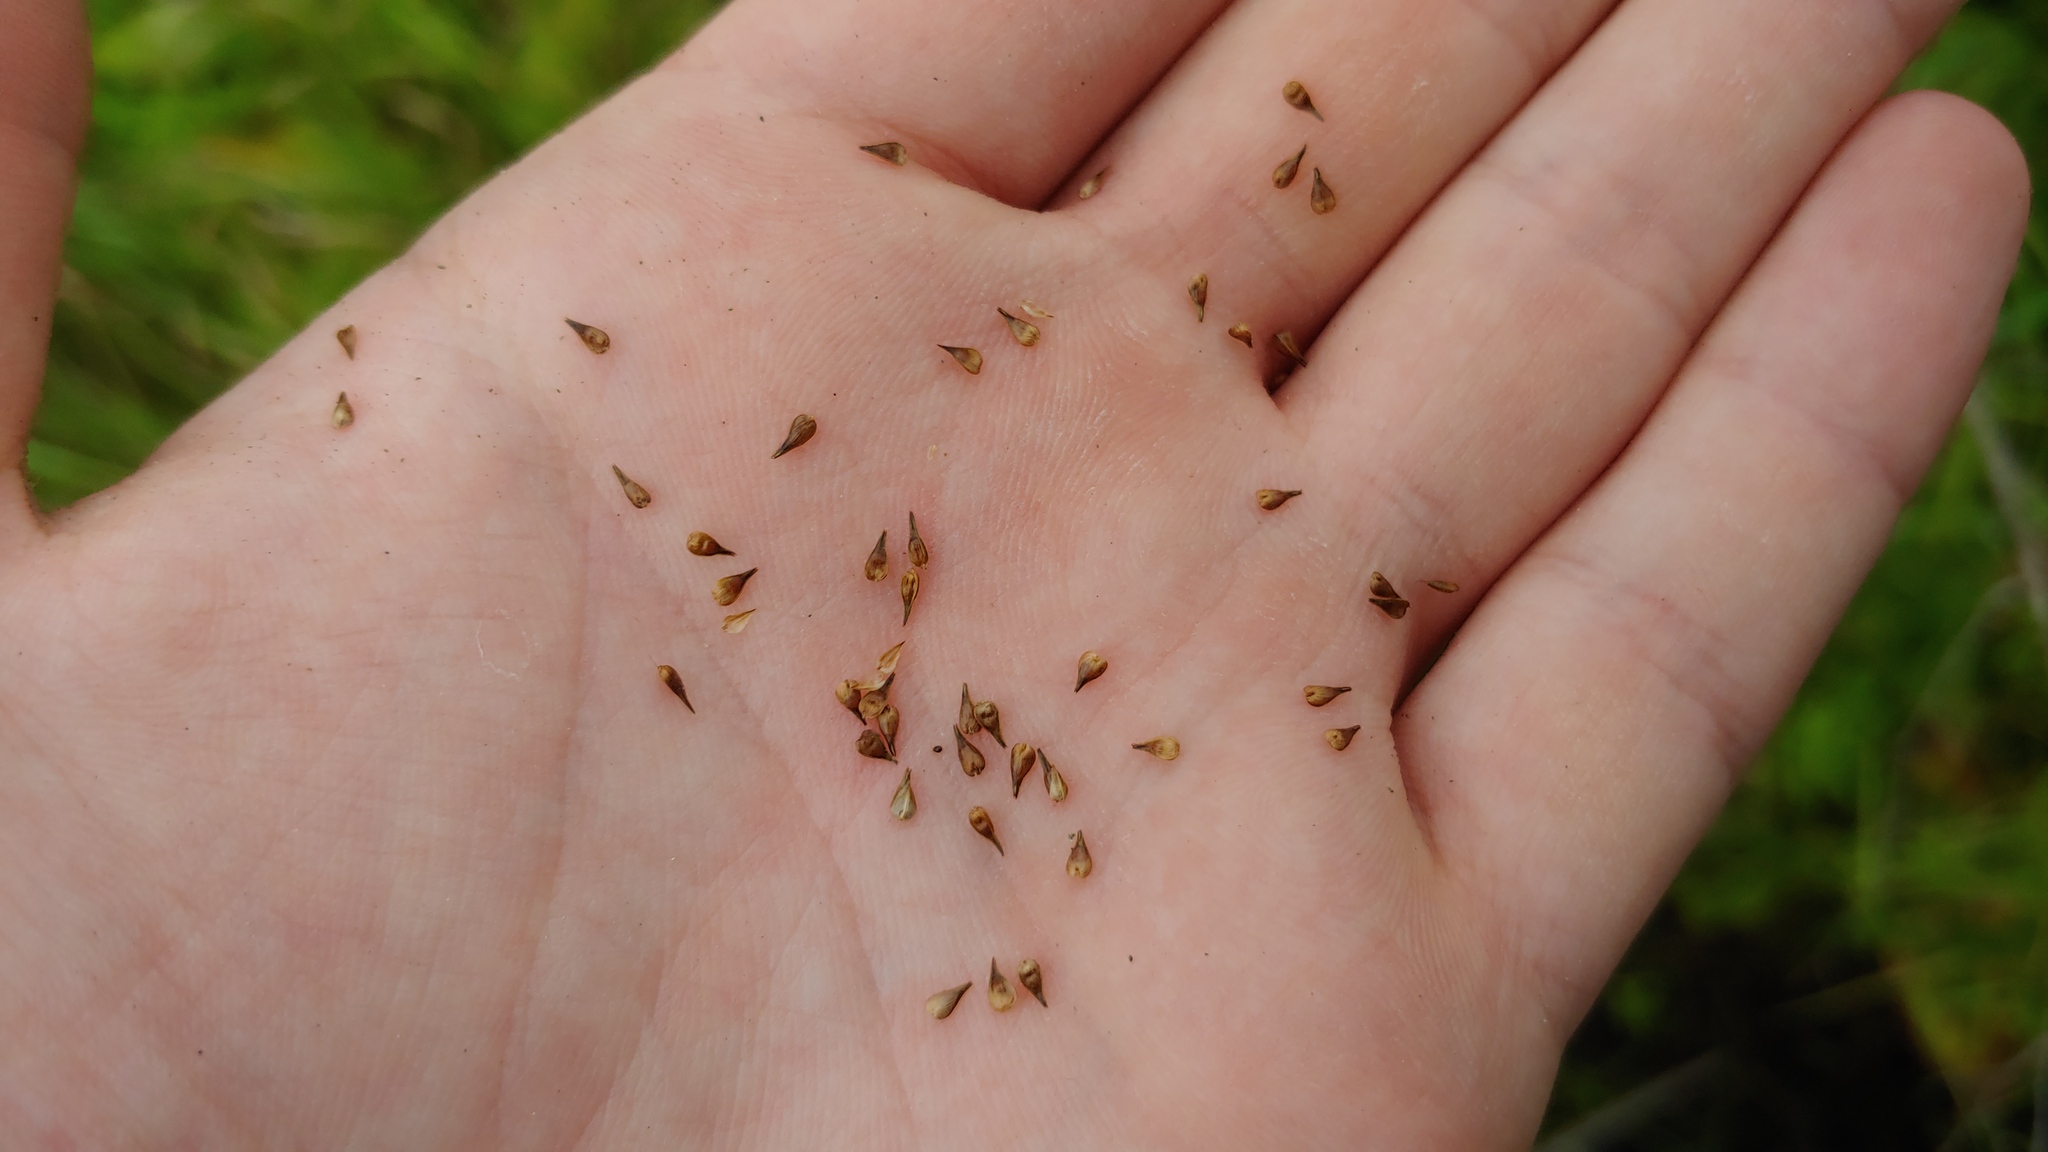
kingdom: Plantae
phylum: Tracheophyta
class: Liliopsida
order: Poales
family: Cyperaceae
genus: Carex
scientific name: Carex echinata
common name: Star sedge
